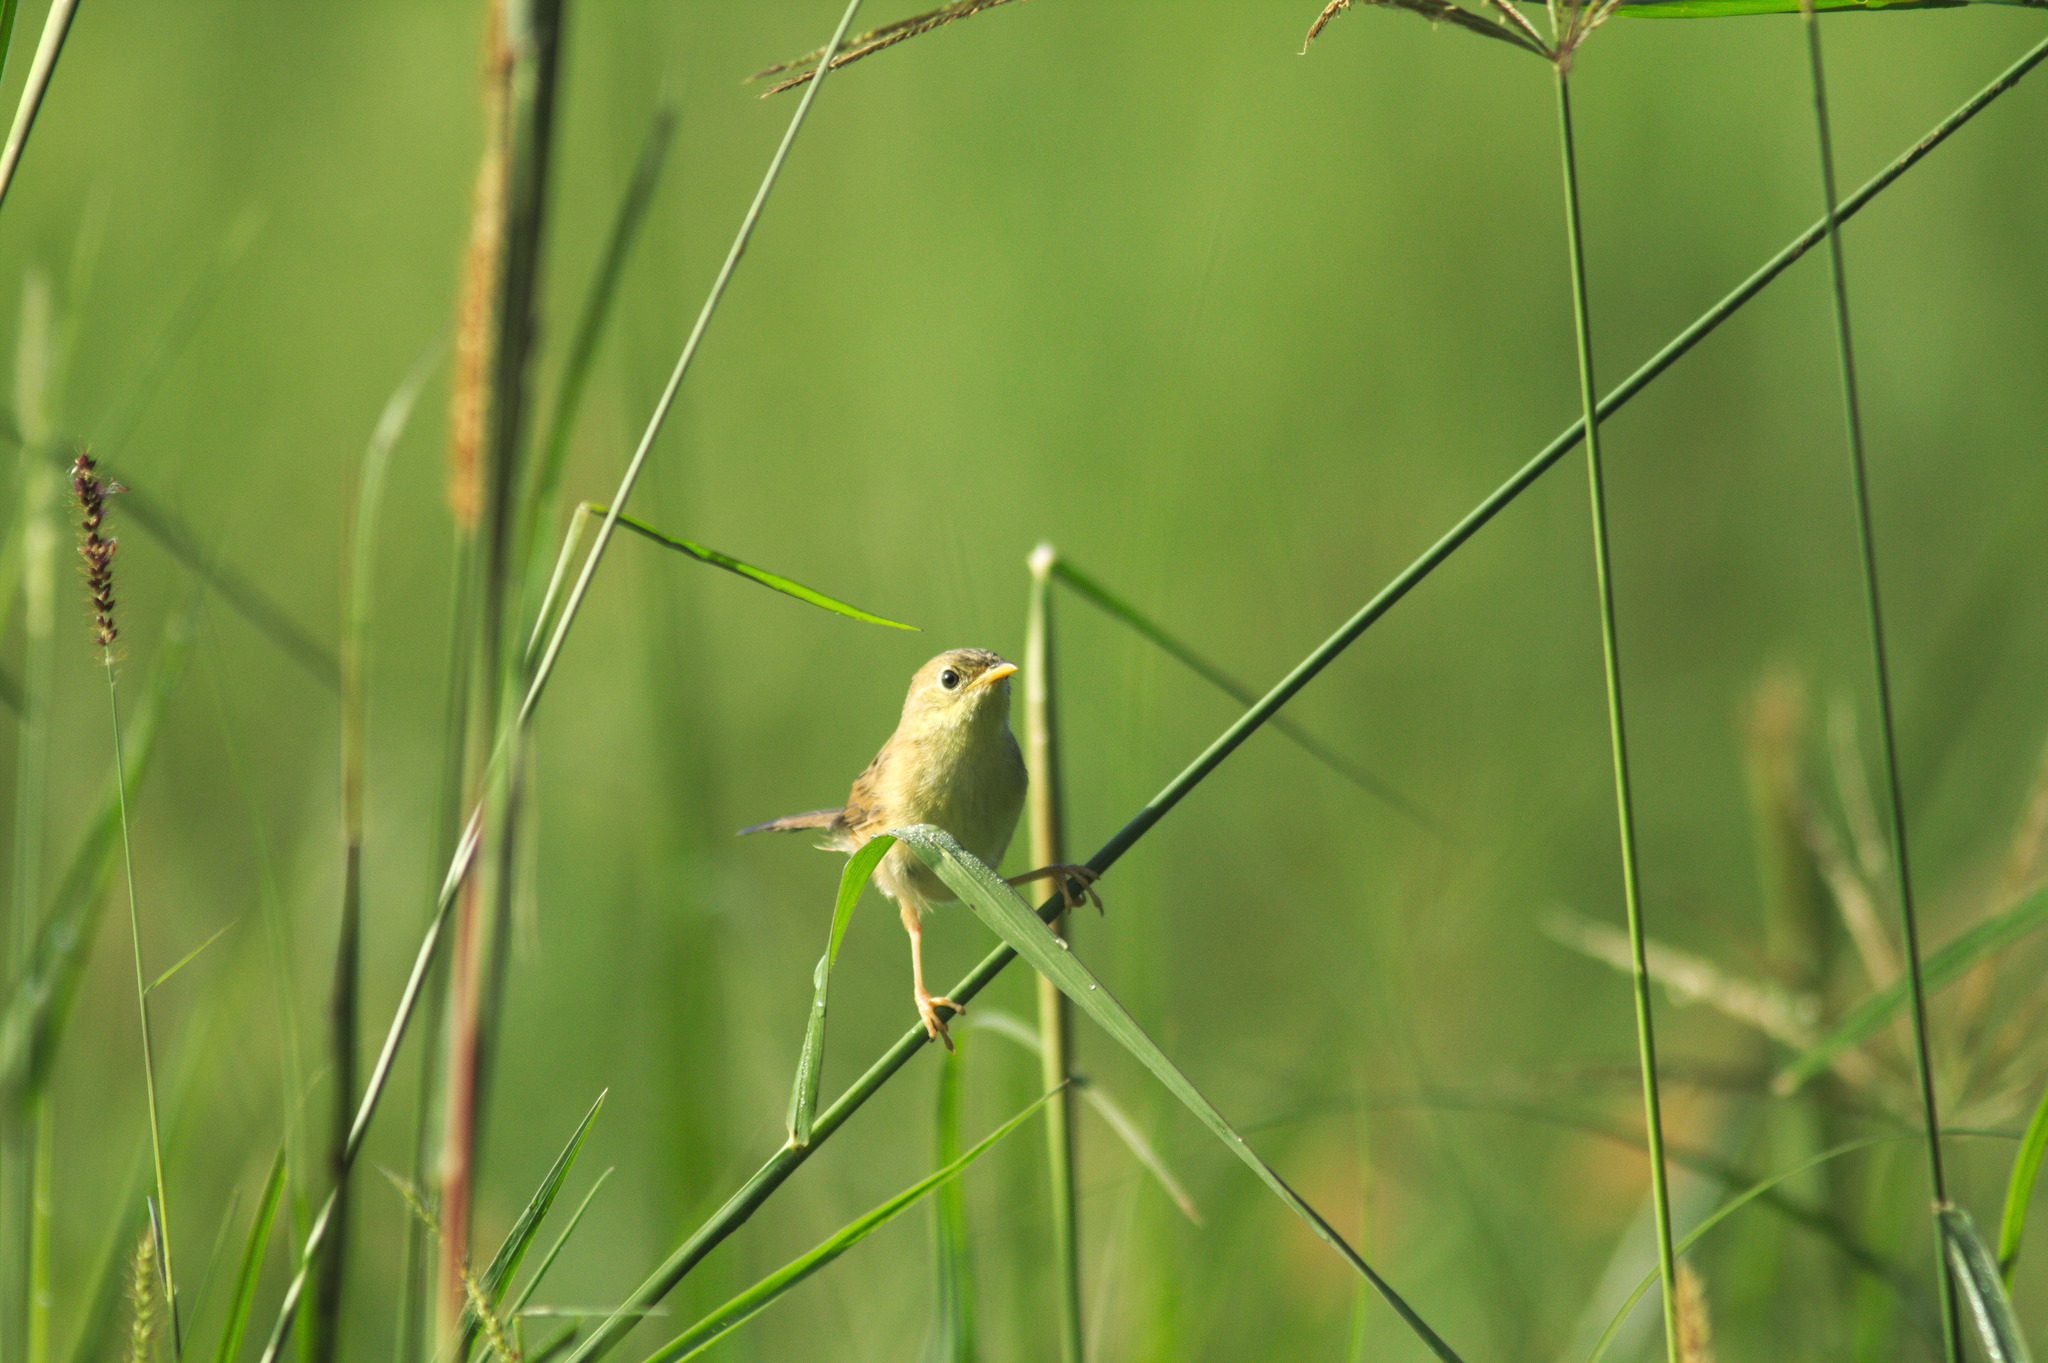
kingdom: Animalia
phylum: Chordata
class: Aves
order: Passeriformes
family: Cisticolidae
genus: Cisticola
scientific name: Cisticola exilis
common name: Golden-headed cisticola
